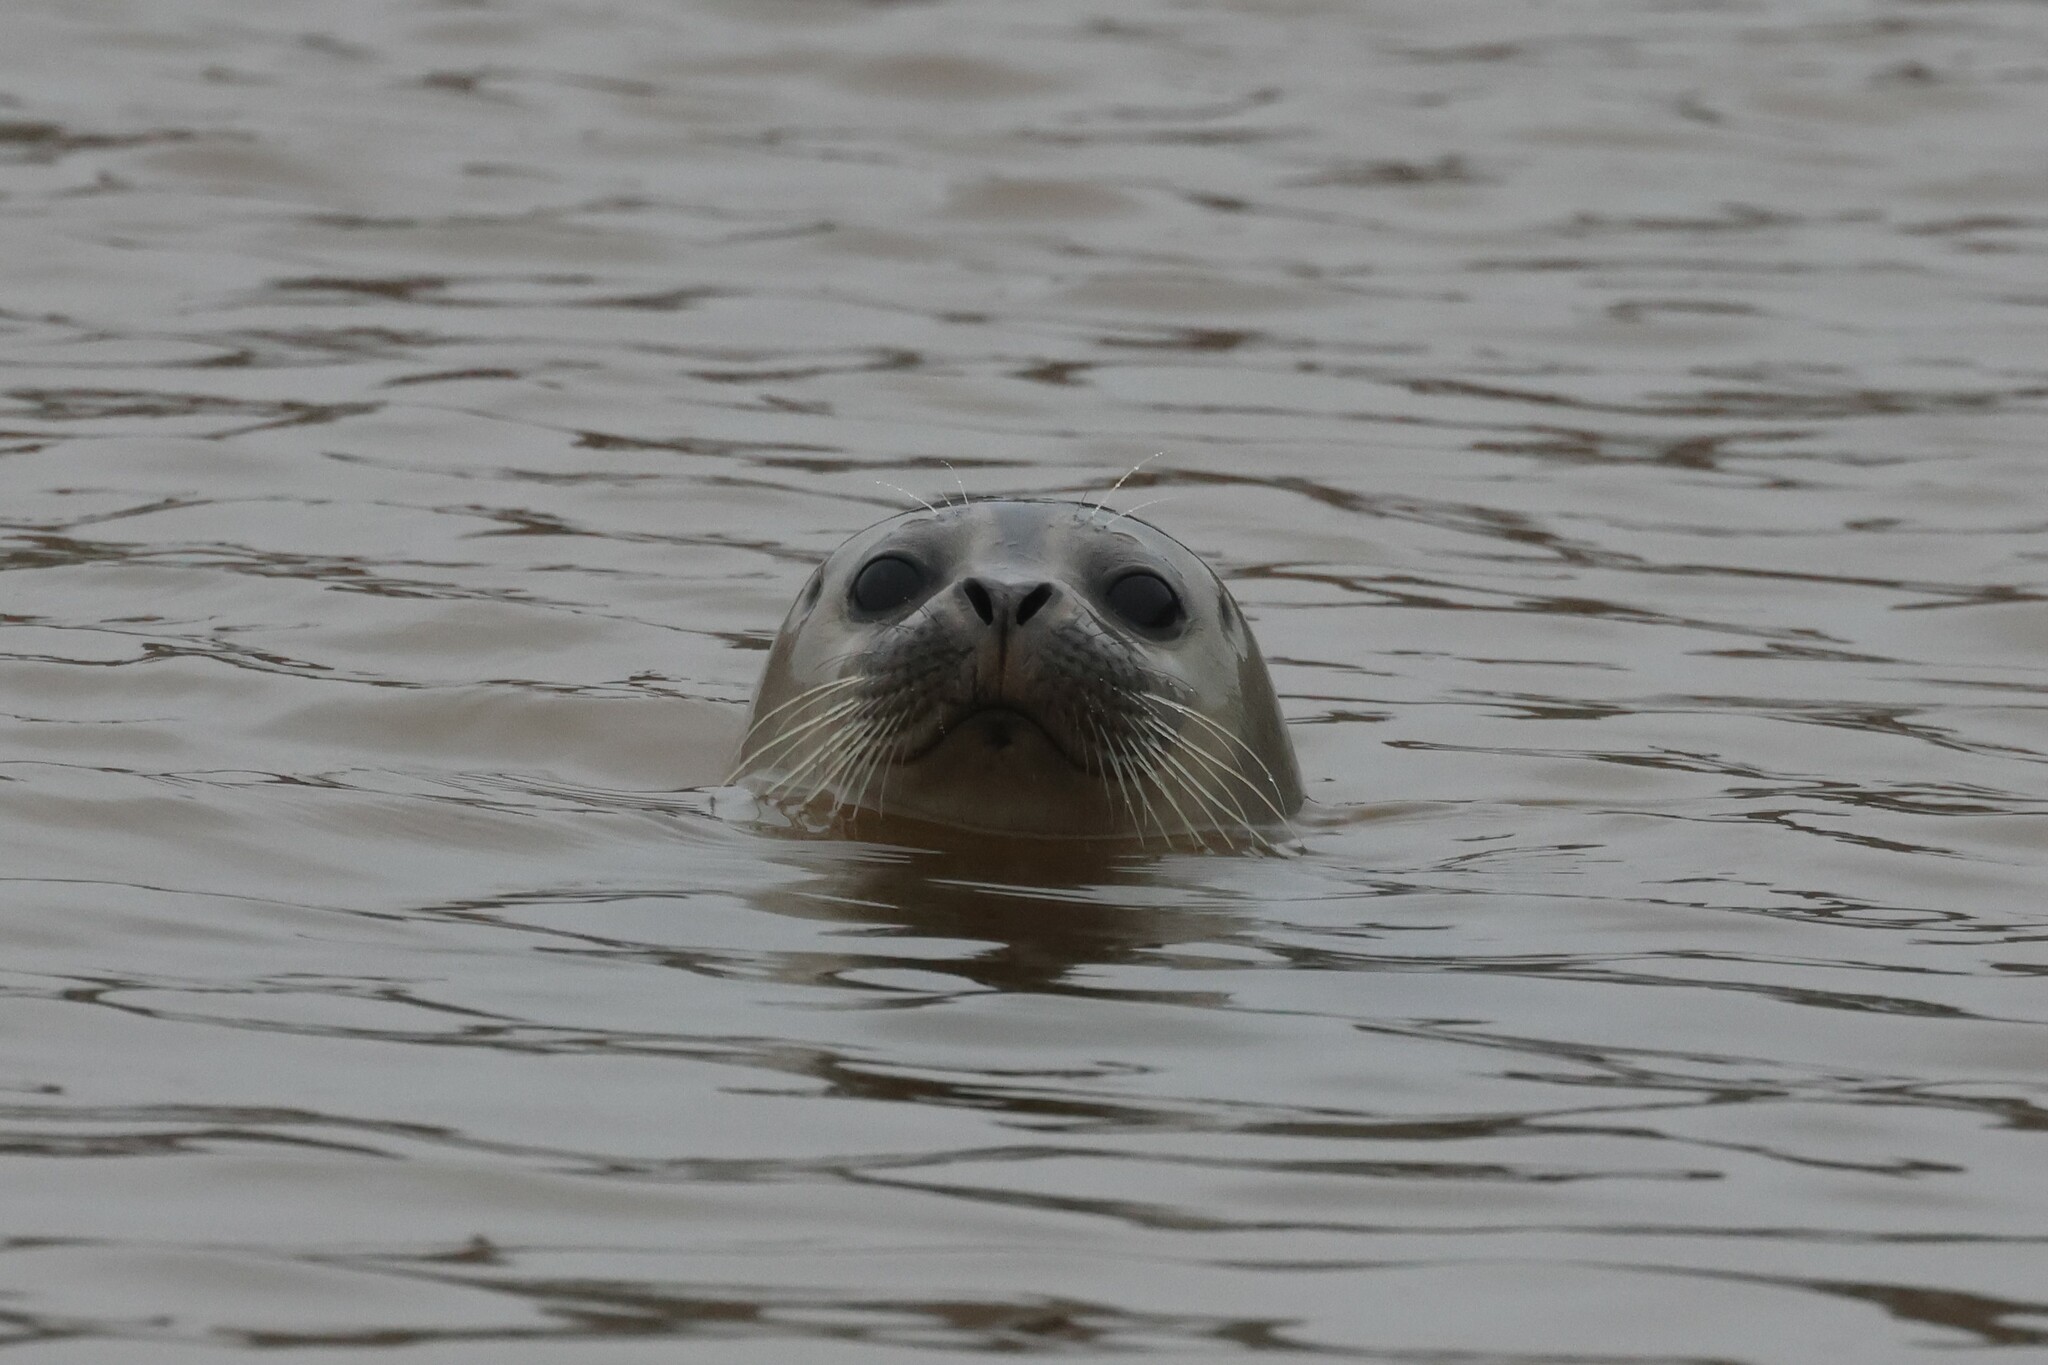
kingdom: Animalia
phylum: Chordata
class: Mammalia
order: Carnivora
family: Phocidae
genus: Phoca
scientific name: Phoca vitulina
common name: Harbor seal
